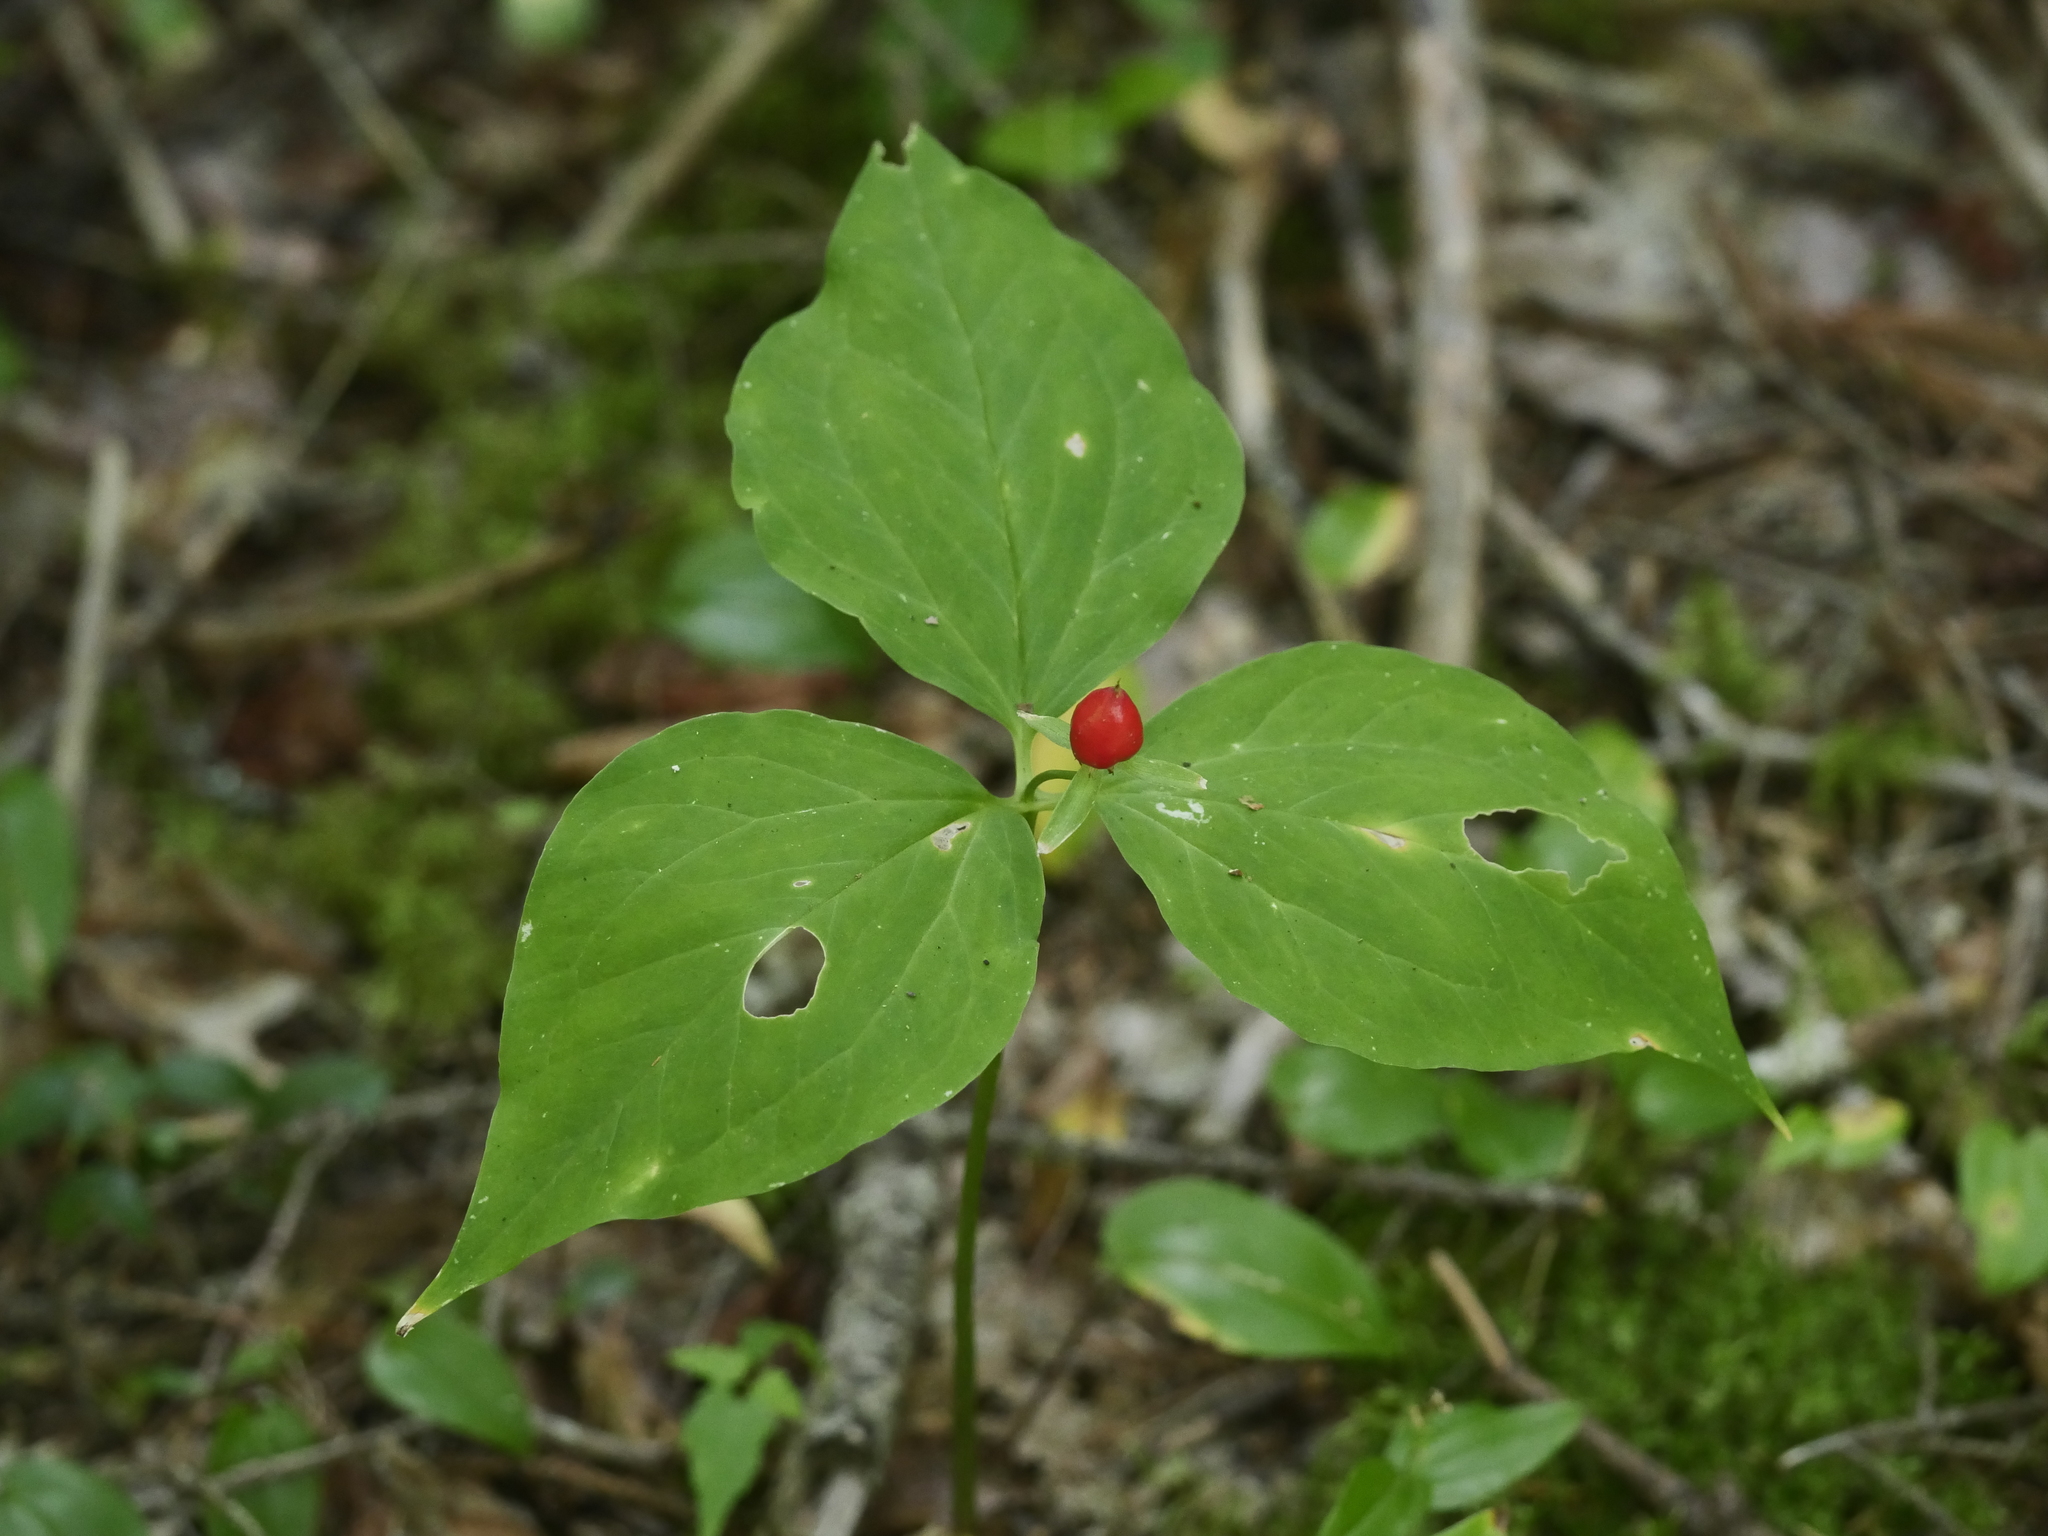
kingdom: Plantae
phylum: Tracheophyta
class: Liliopsida
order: Liliales
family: Melanthiaceae
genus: Trillium
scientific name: Trillium undulatum
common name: Paint trillium
